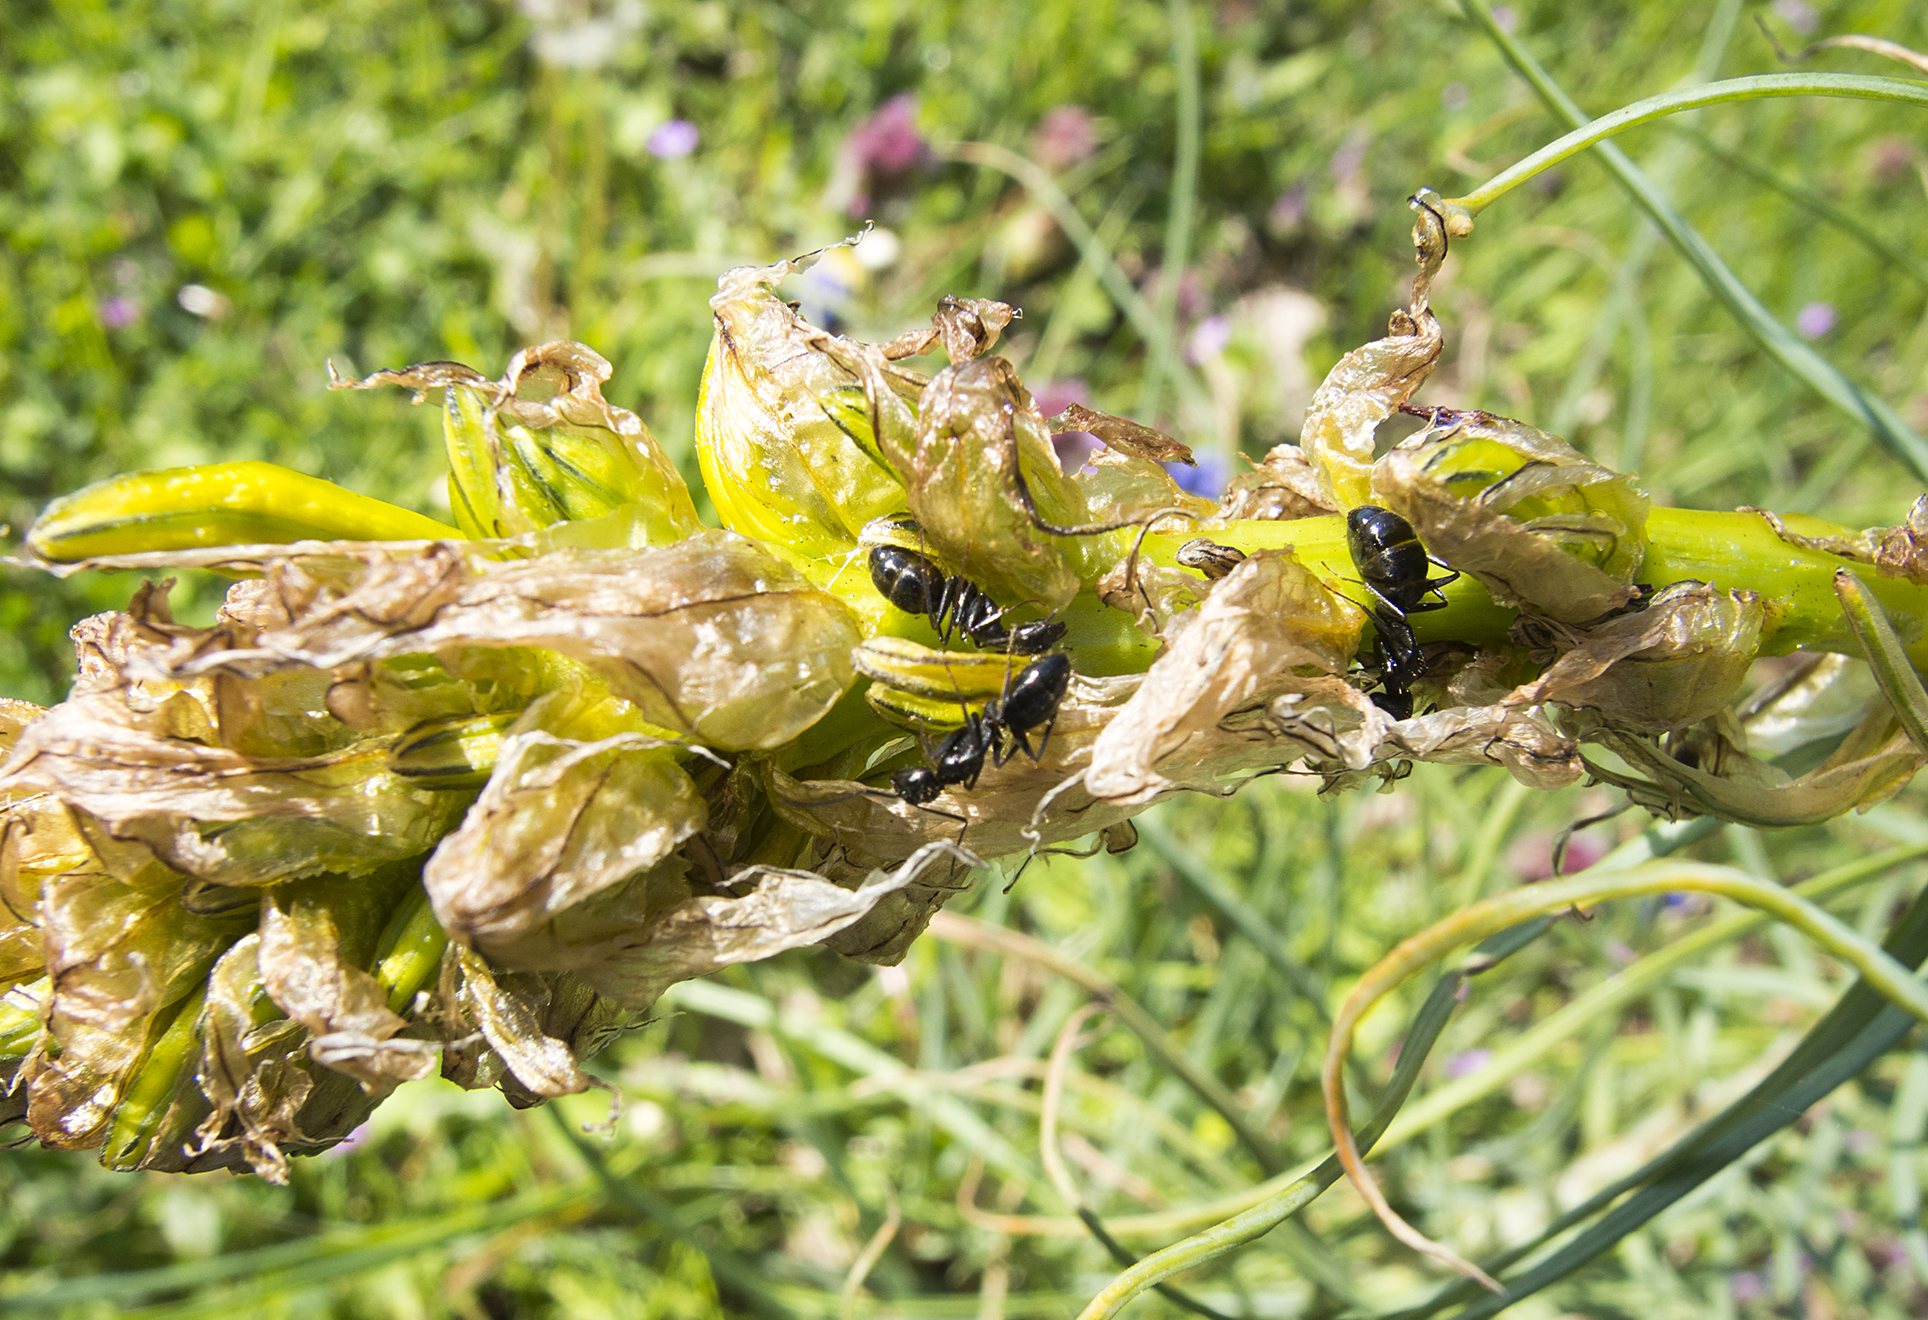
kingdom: Animalia
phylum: Arthropoda
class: Insecta
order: Hymenoptera
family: Formicidae
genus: Camponotus
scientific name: Camponotus aethiops
